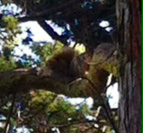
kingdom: Animalia
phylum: Chordata
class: Mammalia
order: Rodentia
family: Sciuridae
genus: Sciurus
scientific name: Sciurus niger
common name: Fox squirrel
